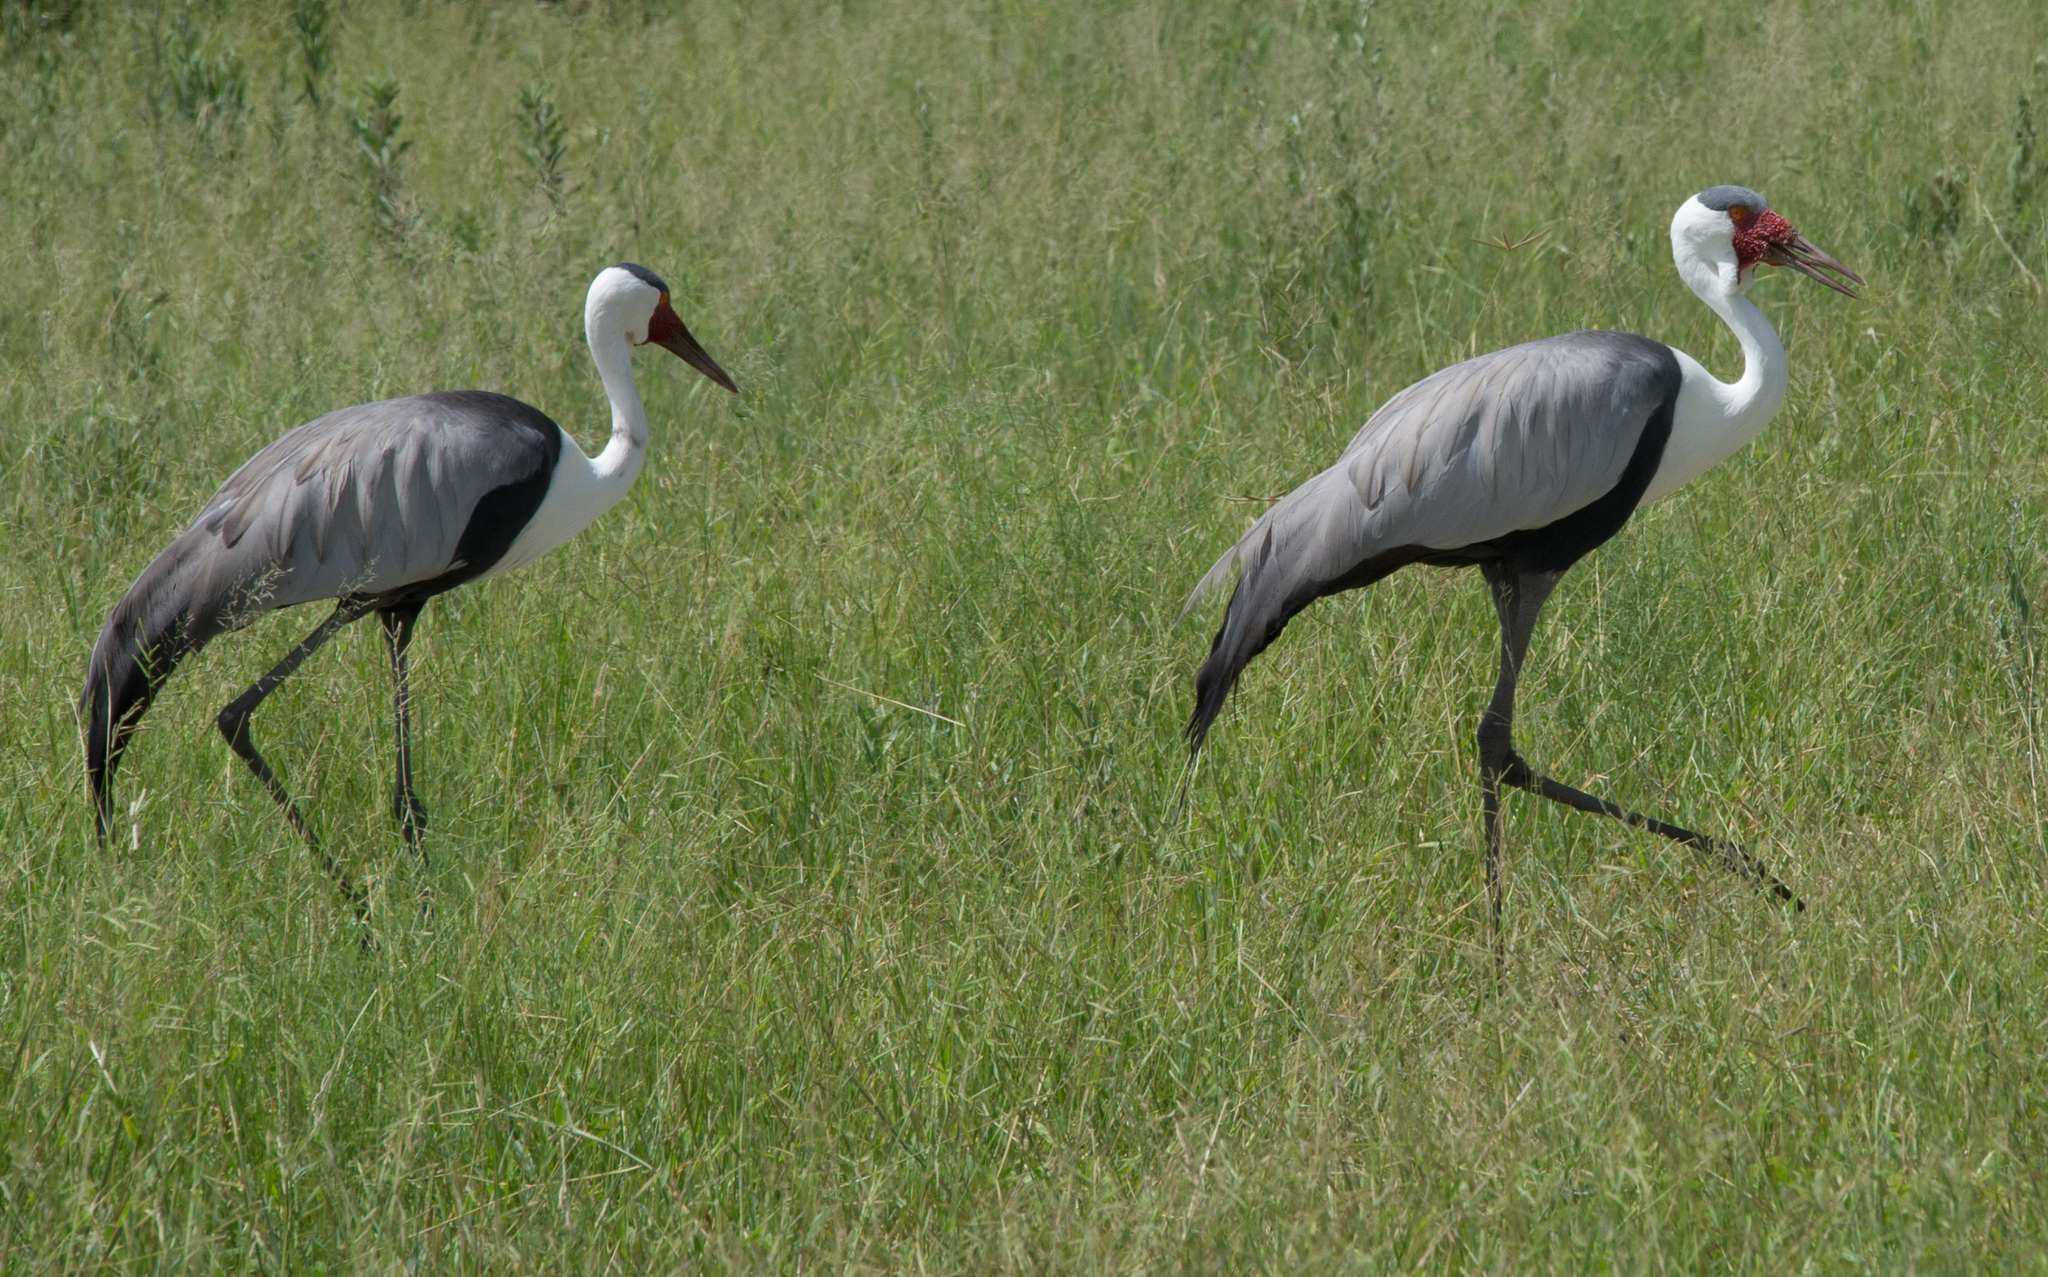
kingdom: Animalia
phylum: Chordata
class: Aves
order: Gruiformes
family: Gruidae
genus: Bugeranus
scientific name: Bugeranus carunculatus
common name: Wattled crane
